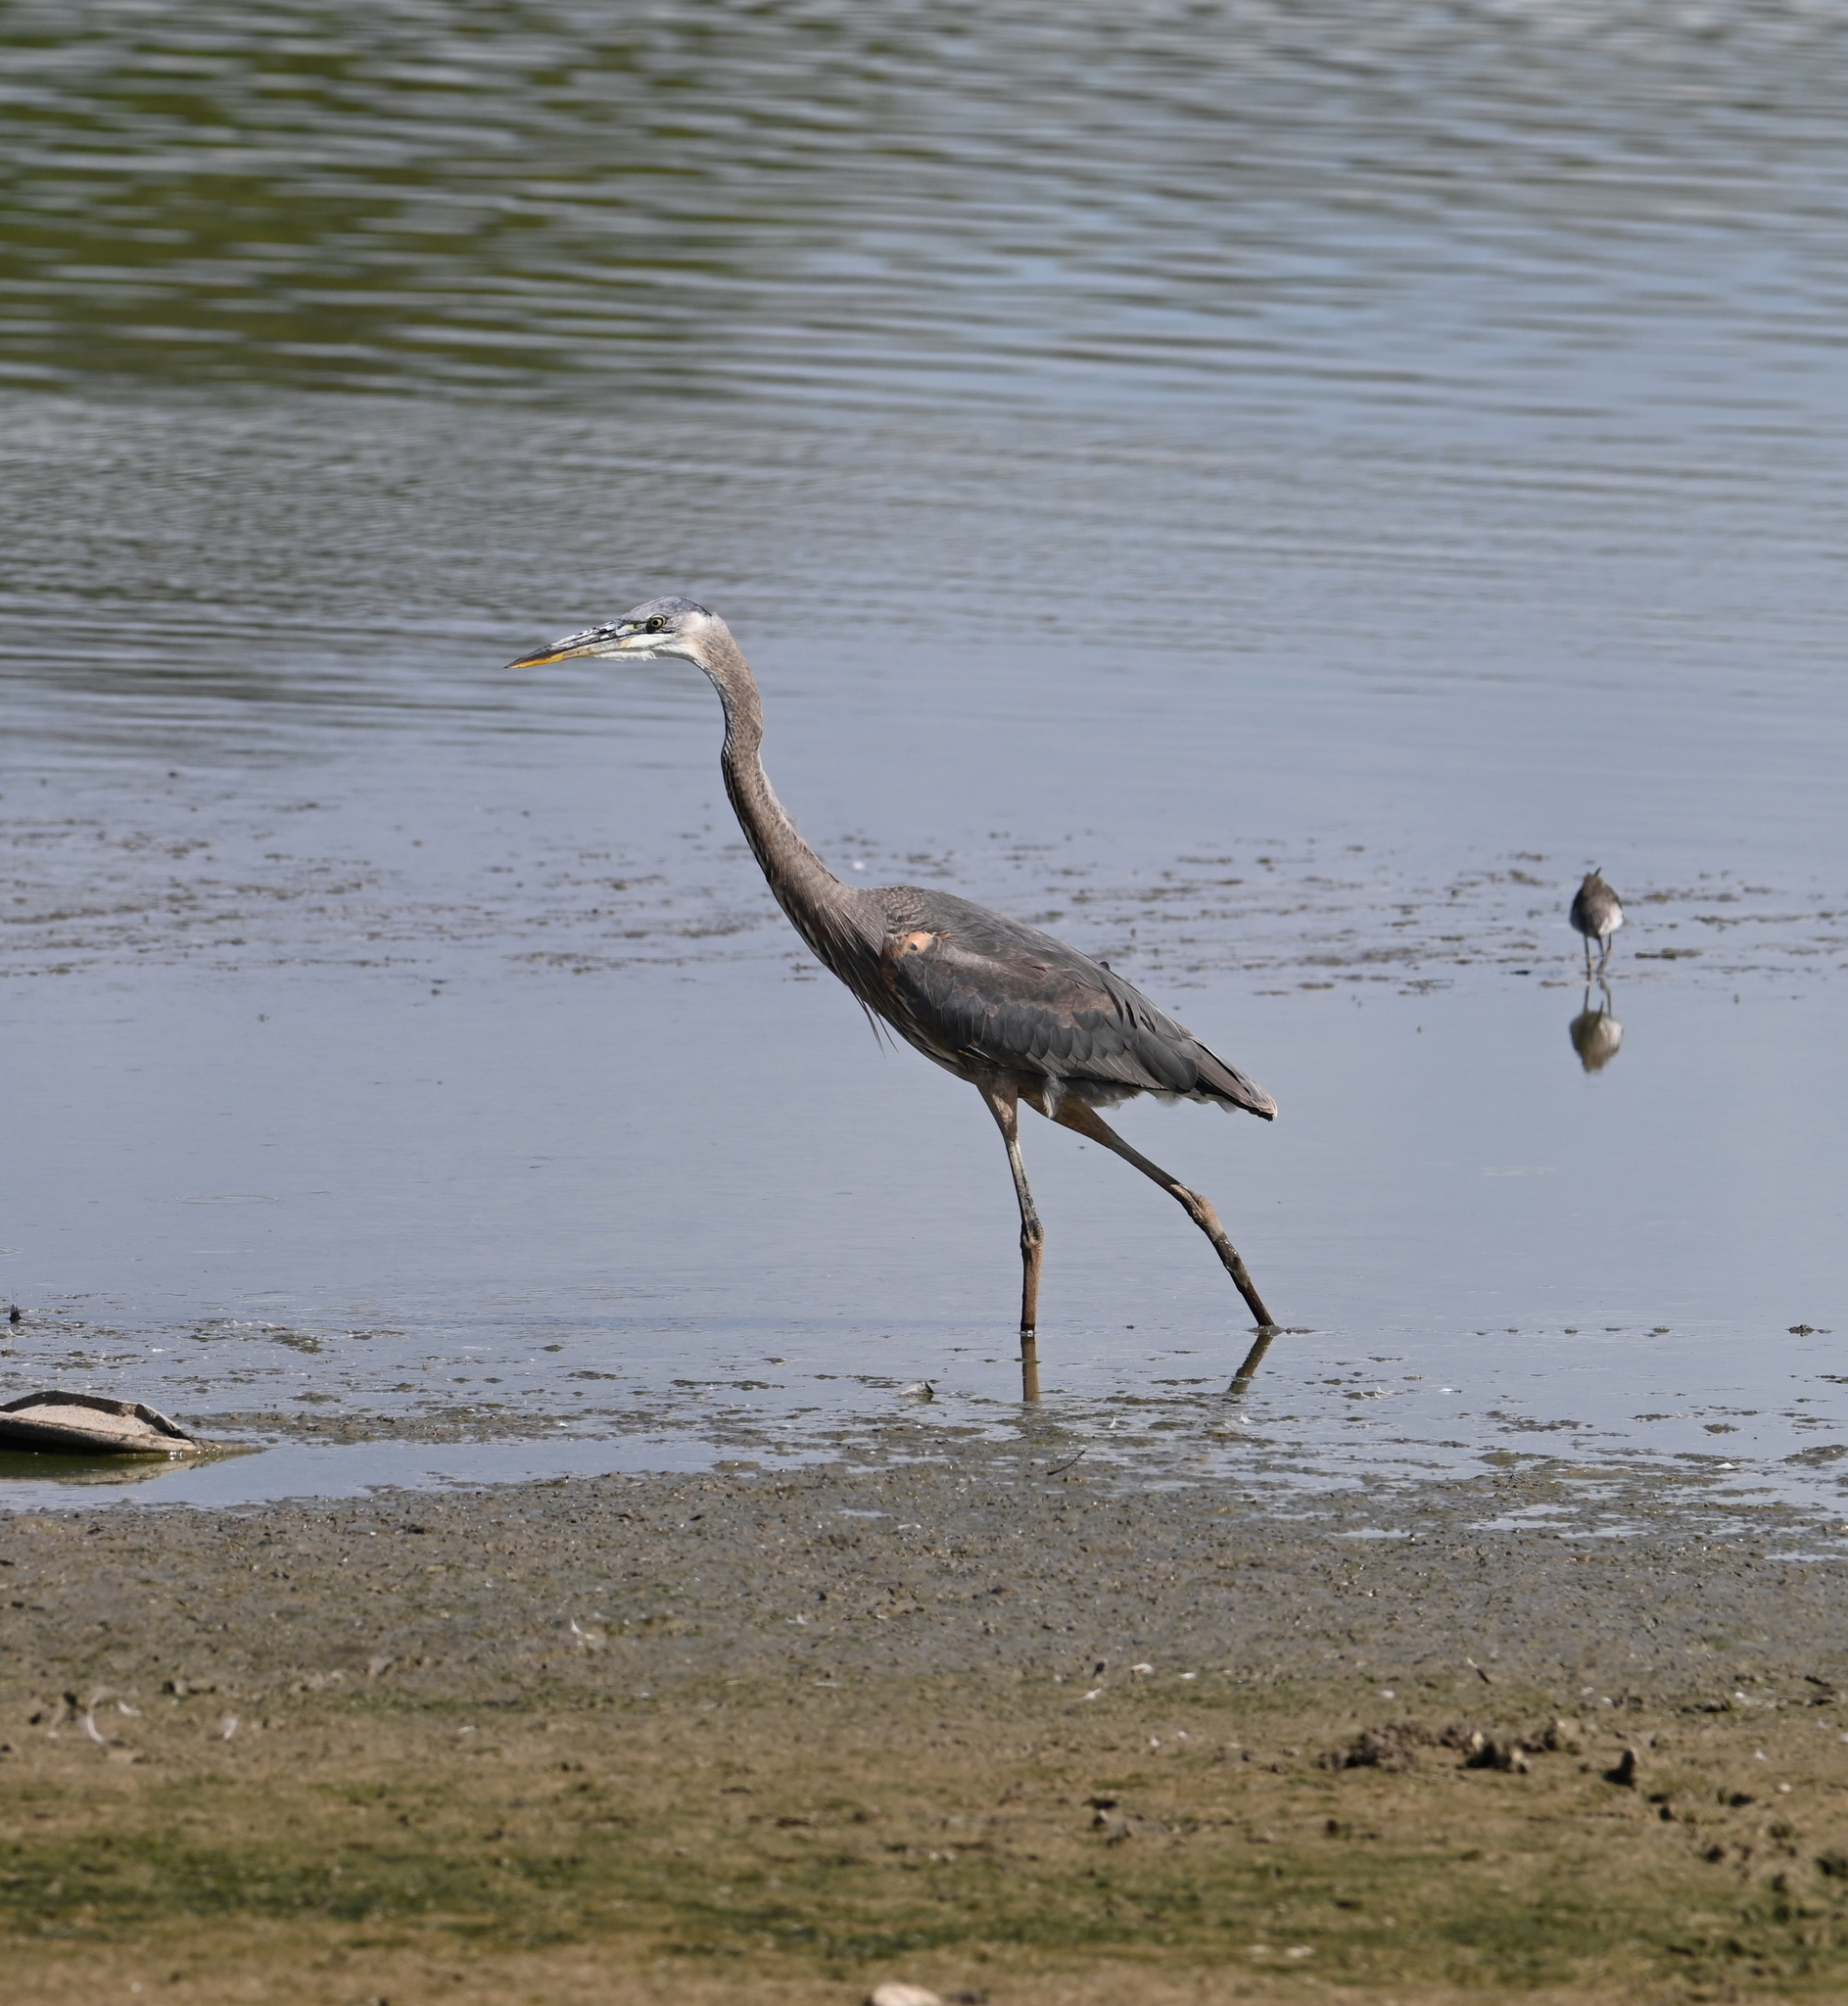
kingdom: Animalia
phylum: Chordata
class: Aves
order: Pelecaniformes
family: Ardeidae
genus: Ardea
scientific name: Ardea herodias
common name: Great blue heron
